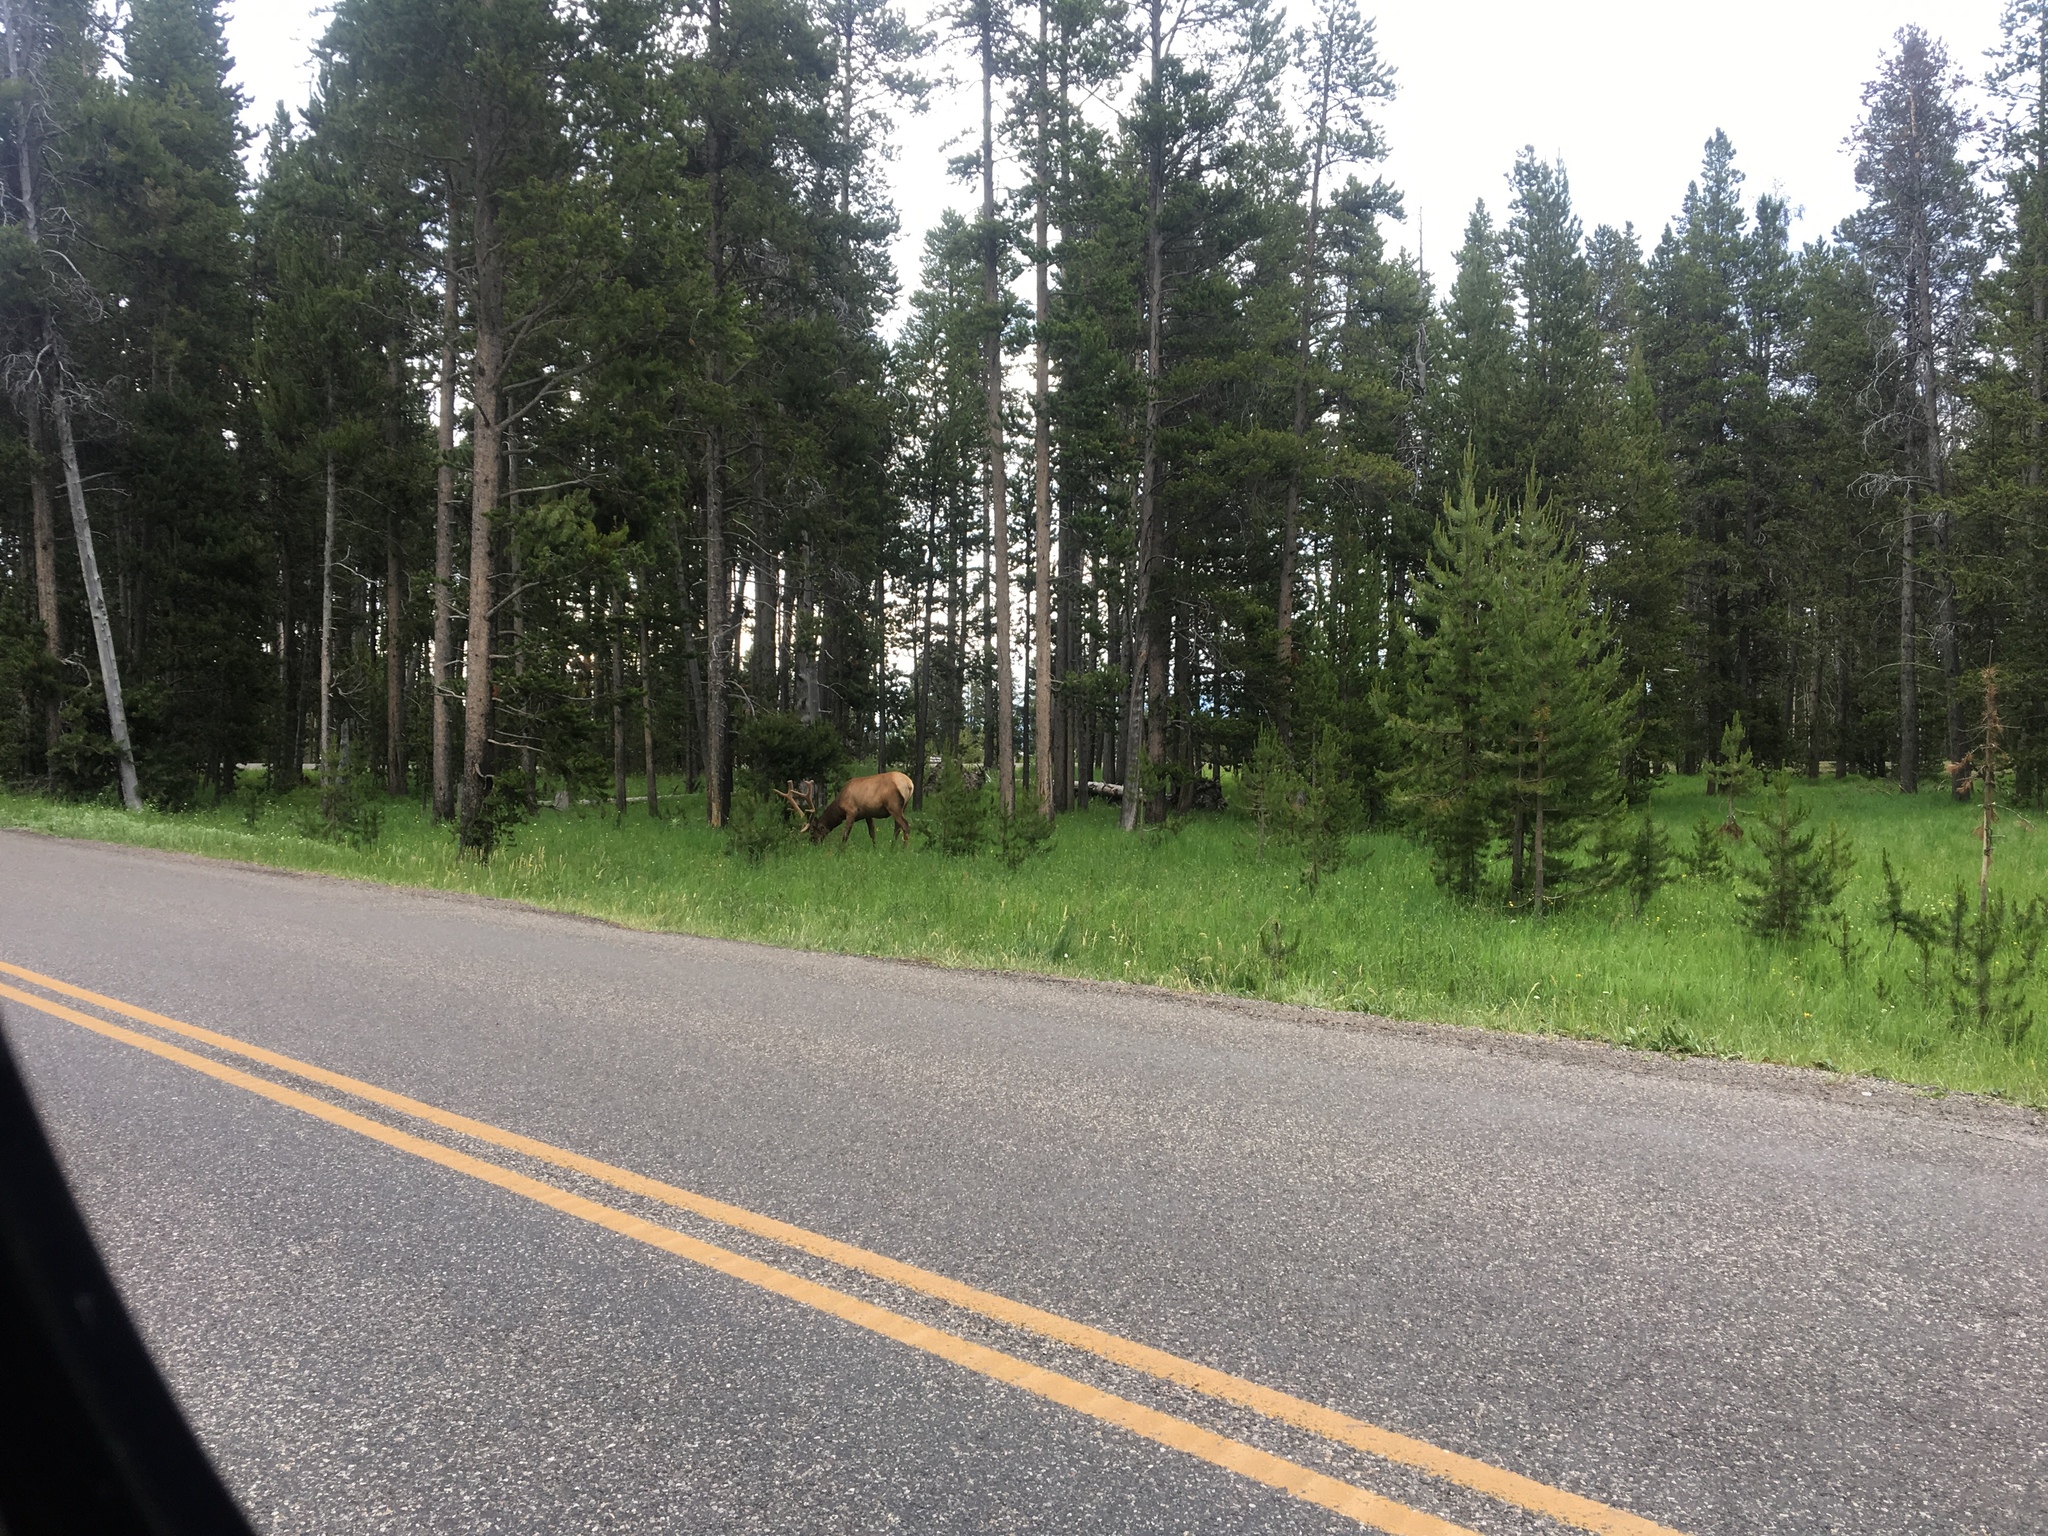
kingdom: Animalia
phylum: Chordata
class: Mammalia
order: Artiodactyla
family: Cervidae
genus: Cervus
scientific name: Cervus elaphus
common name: Red deer
